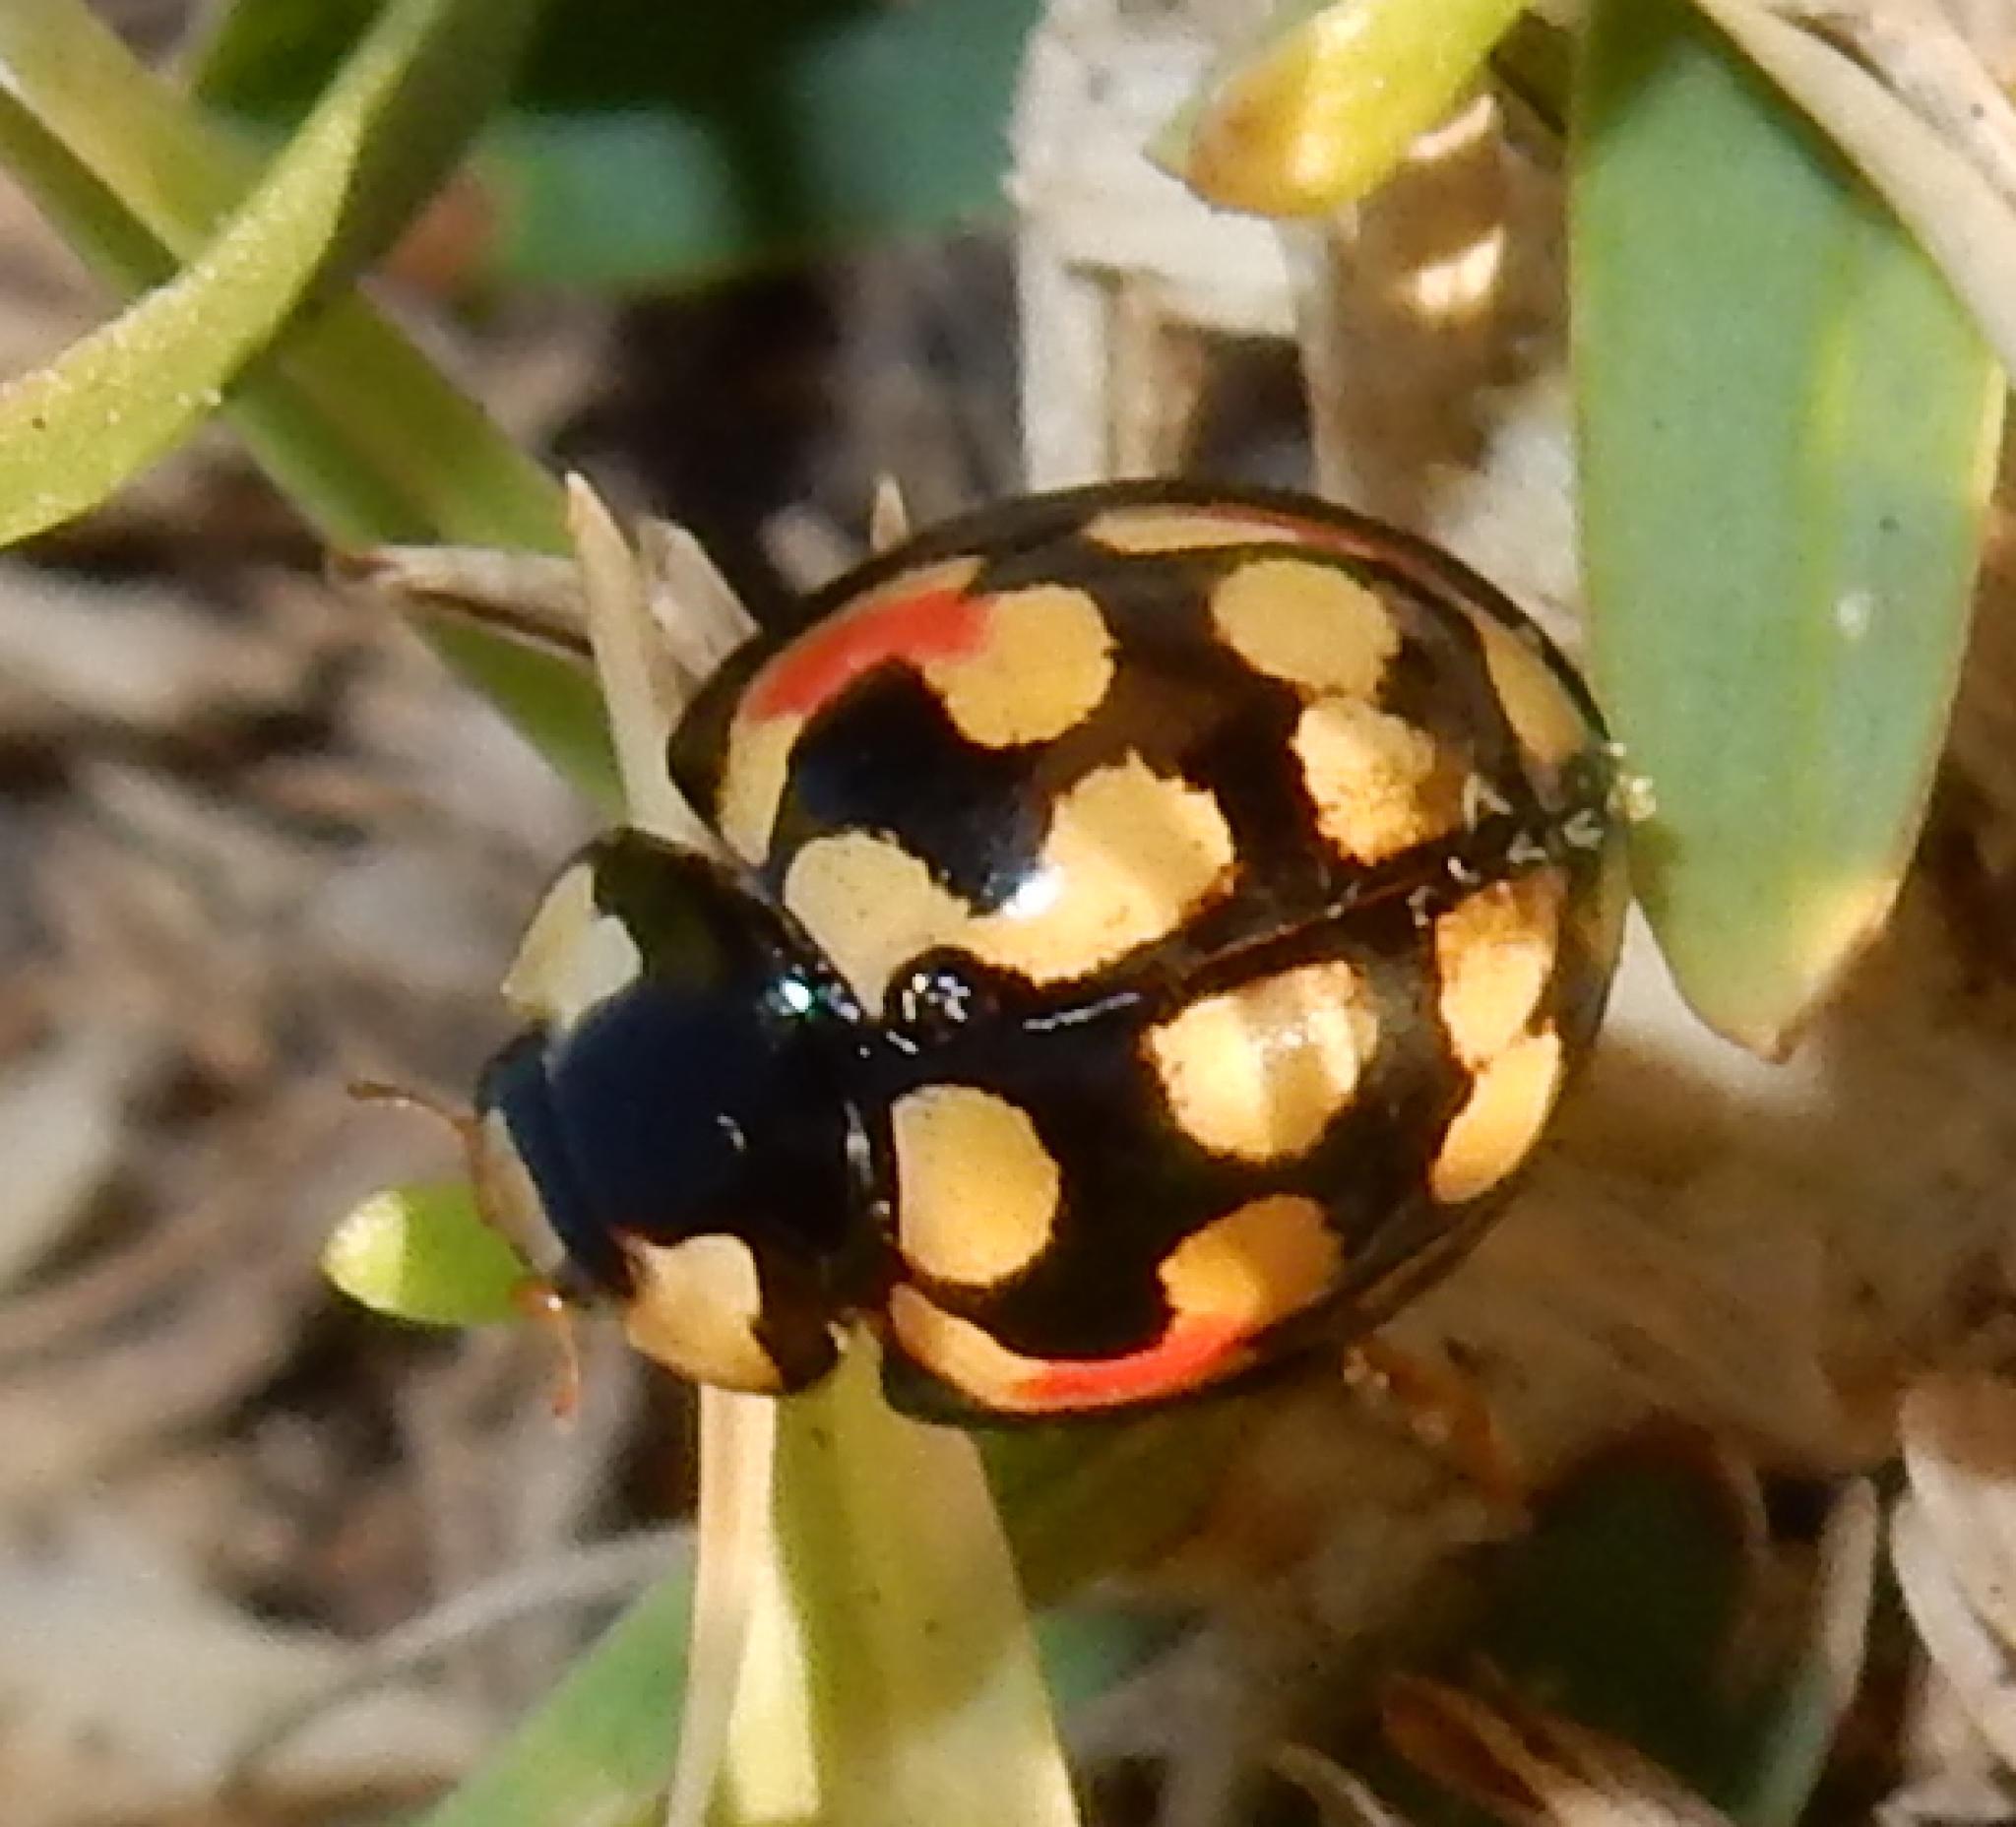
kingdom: Animalia
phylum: Arthropoda
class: Insecta
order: Coleoptera
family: Coccinellidae
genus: Cheilomenes
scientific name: Cheilomenes sulphurea
